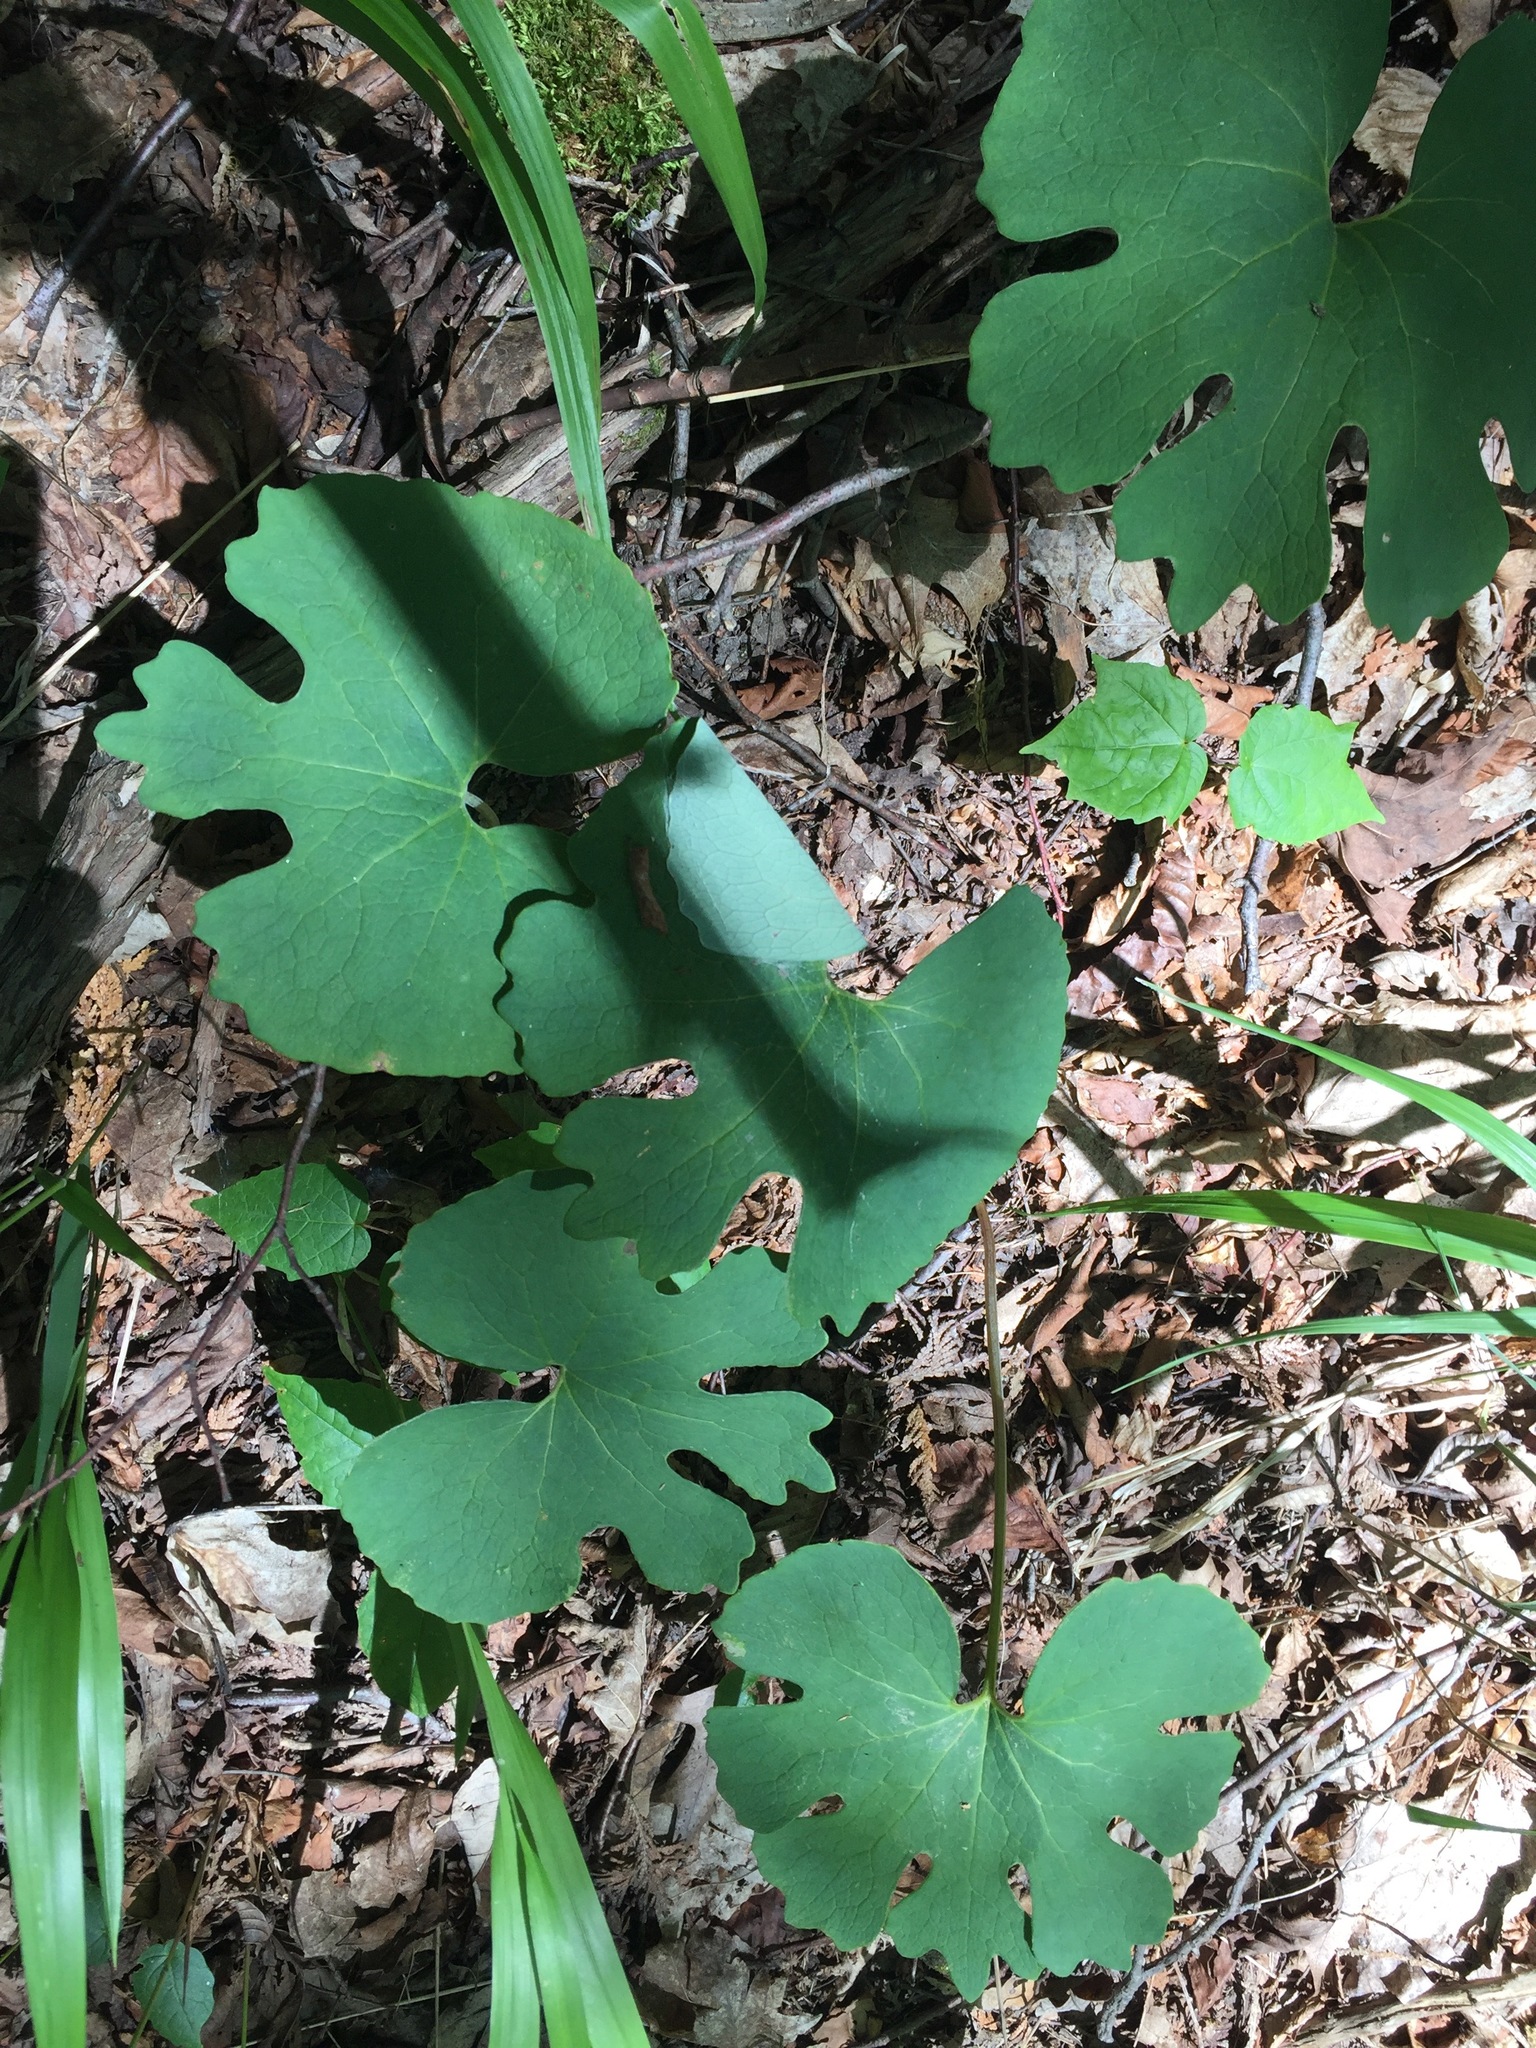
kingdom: Plantae
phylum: Tracheophyta
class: Magnoliopsida
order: Ranunculales
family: Papaveraceae
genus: Sanguinaria
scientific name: Sanguinaria canadensis
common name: Bloodroot
